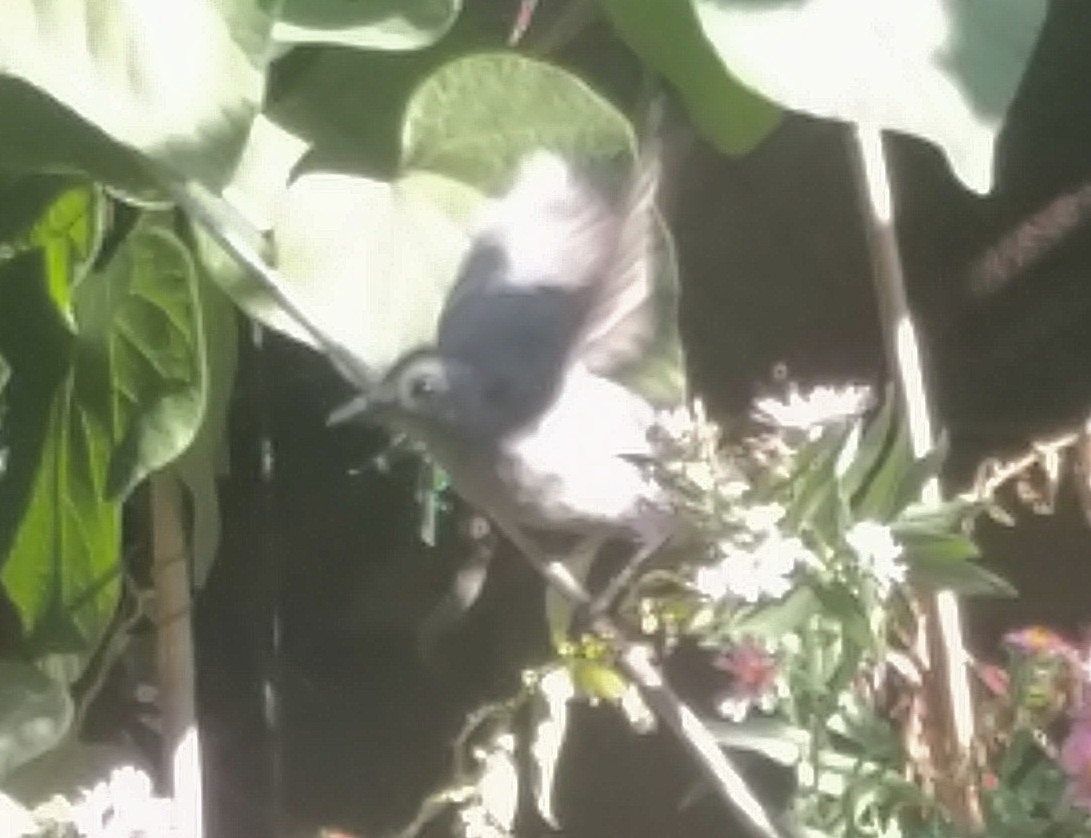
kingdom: Animalia
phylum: Chordata
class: Aves
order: Passeriformes
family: Mimidae
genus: Dumetella
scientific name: Dumetella carolinensis
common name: Gray catbird
